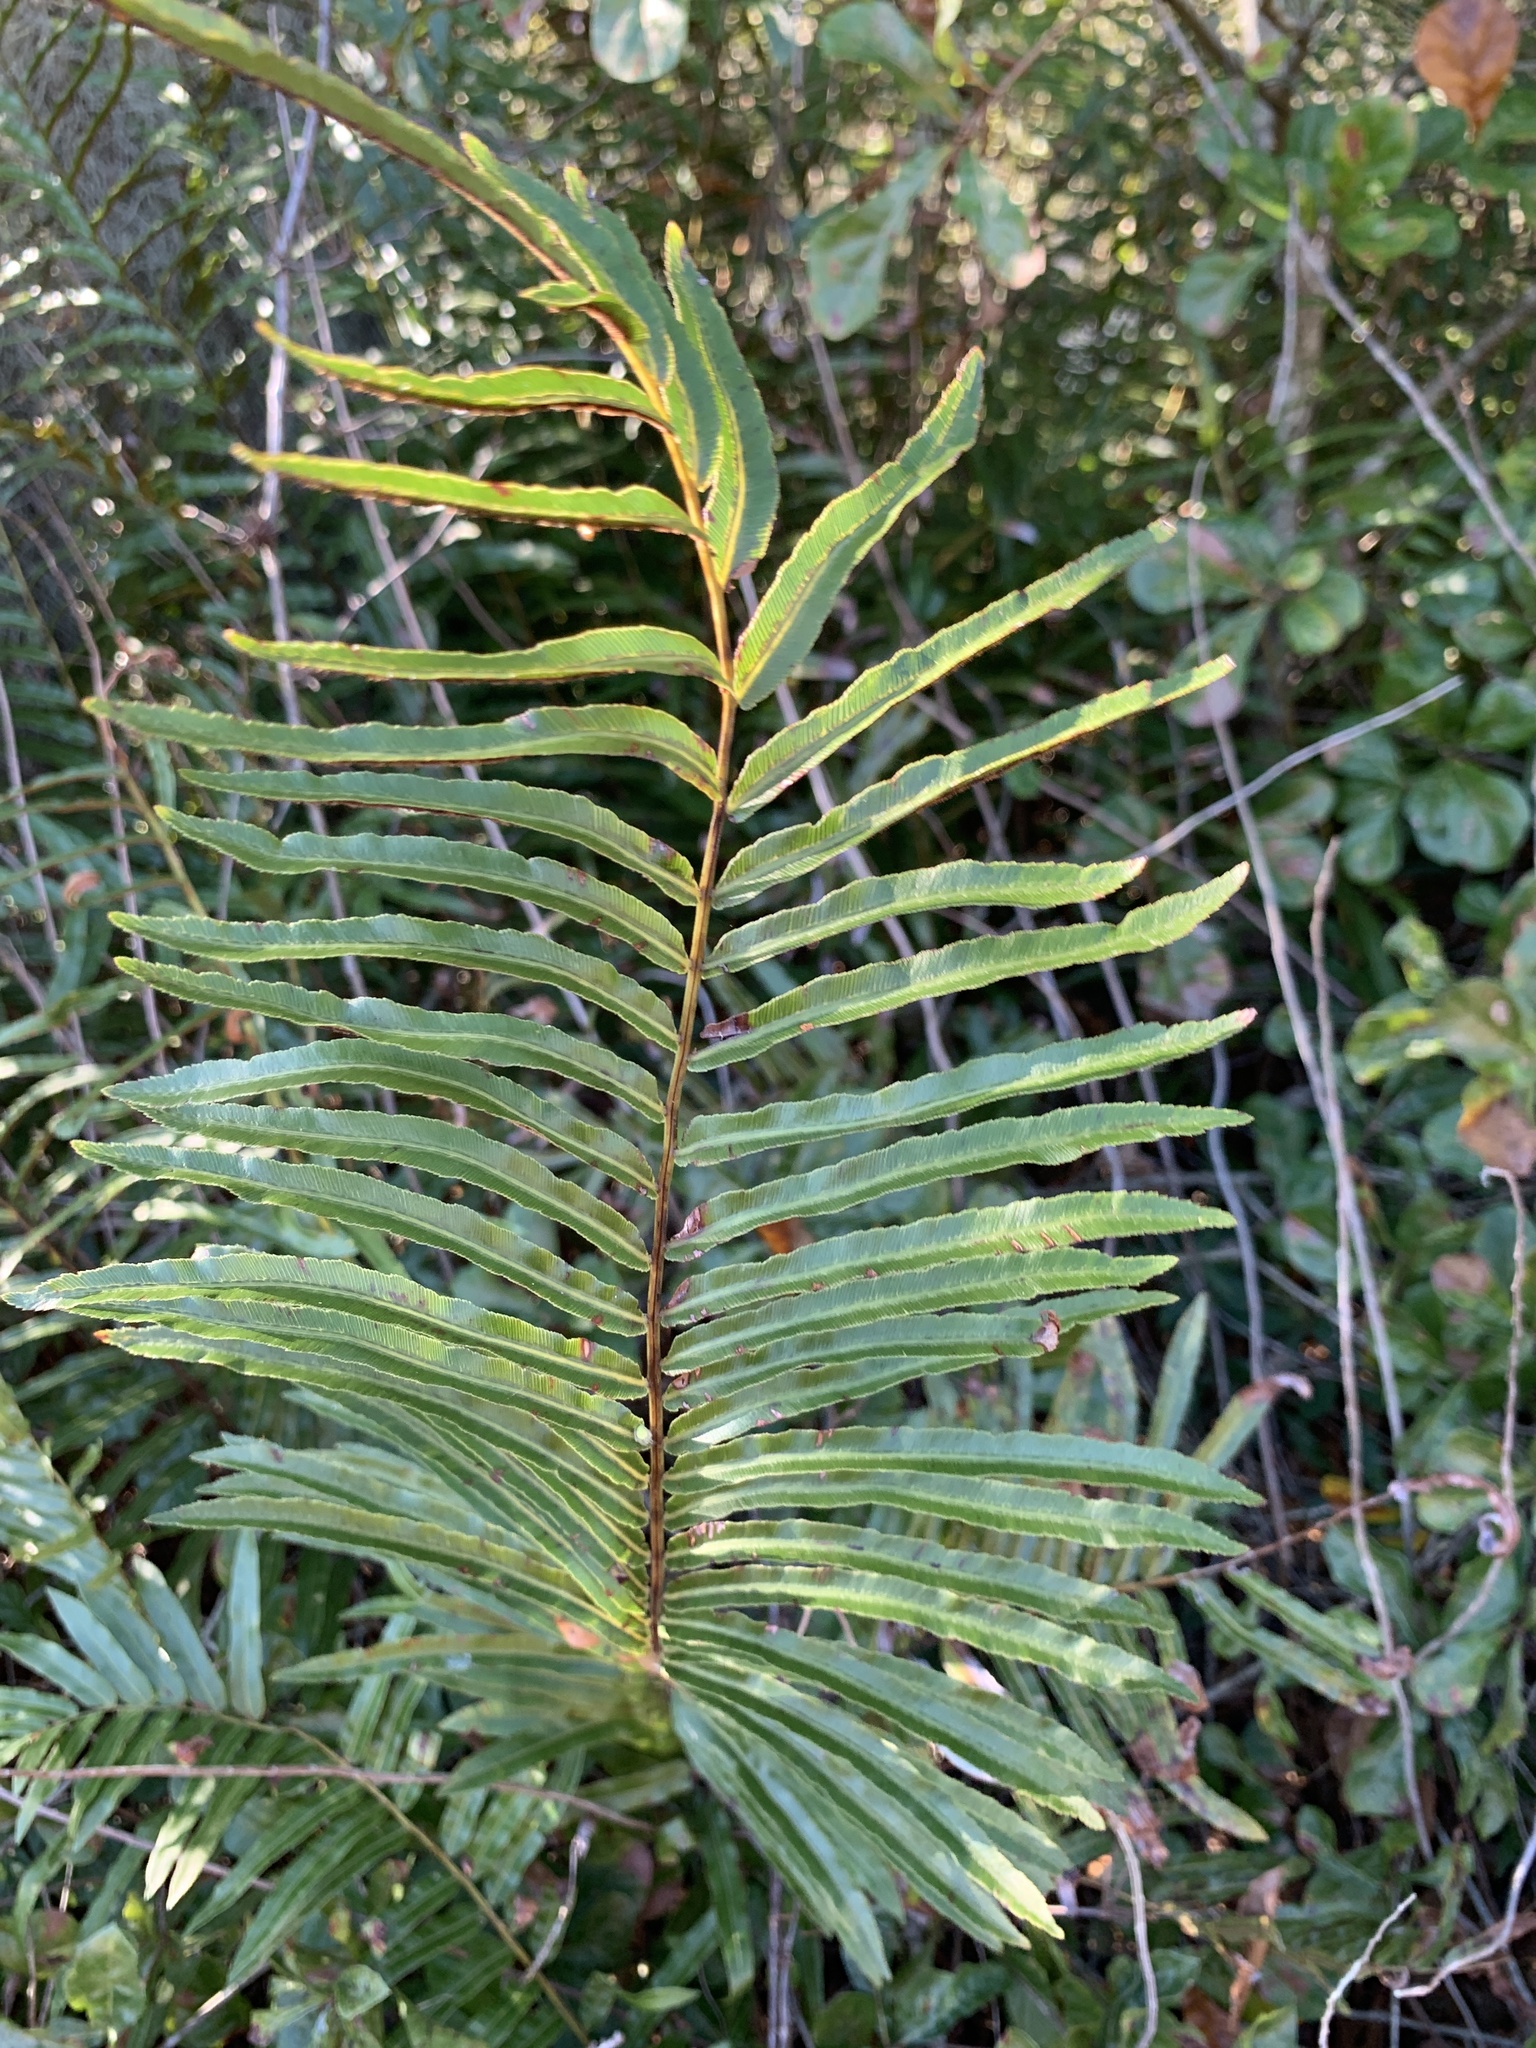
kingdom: Plantae
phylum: Tracheophyta
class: Polypodiopsida
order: Polypodiales
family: Blechnaceae
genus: Telmatoblechnum
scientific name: Telmatoblechnum serrulatum
